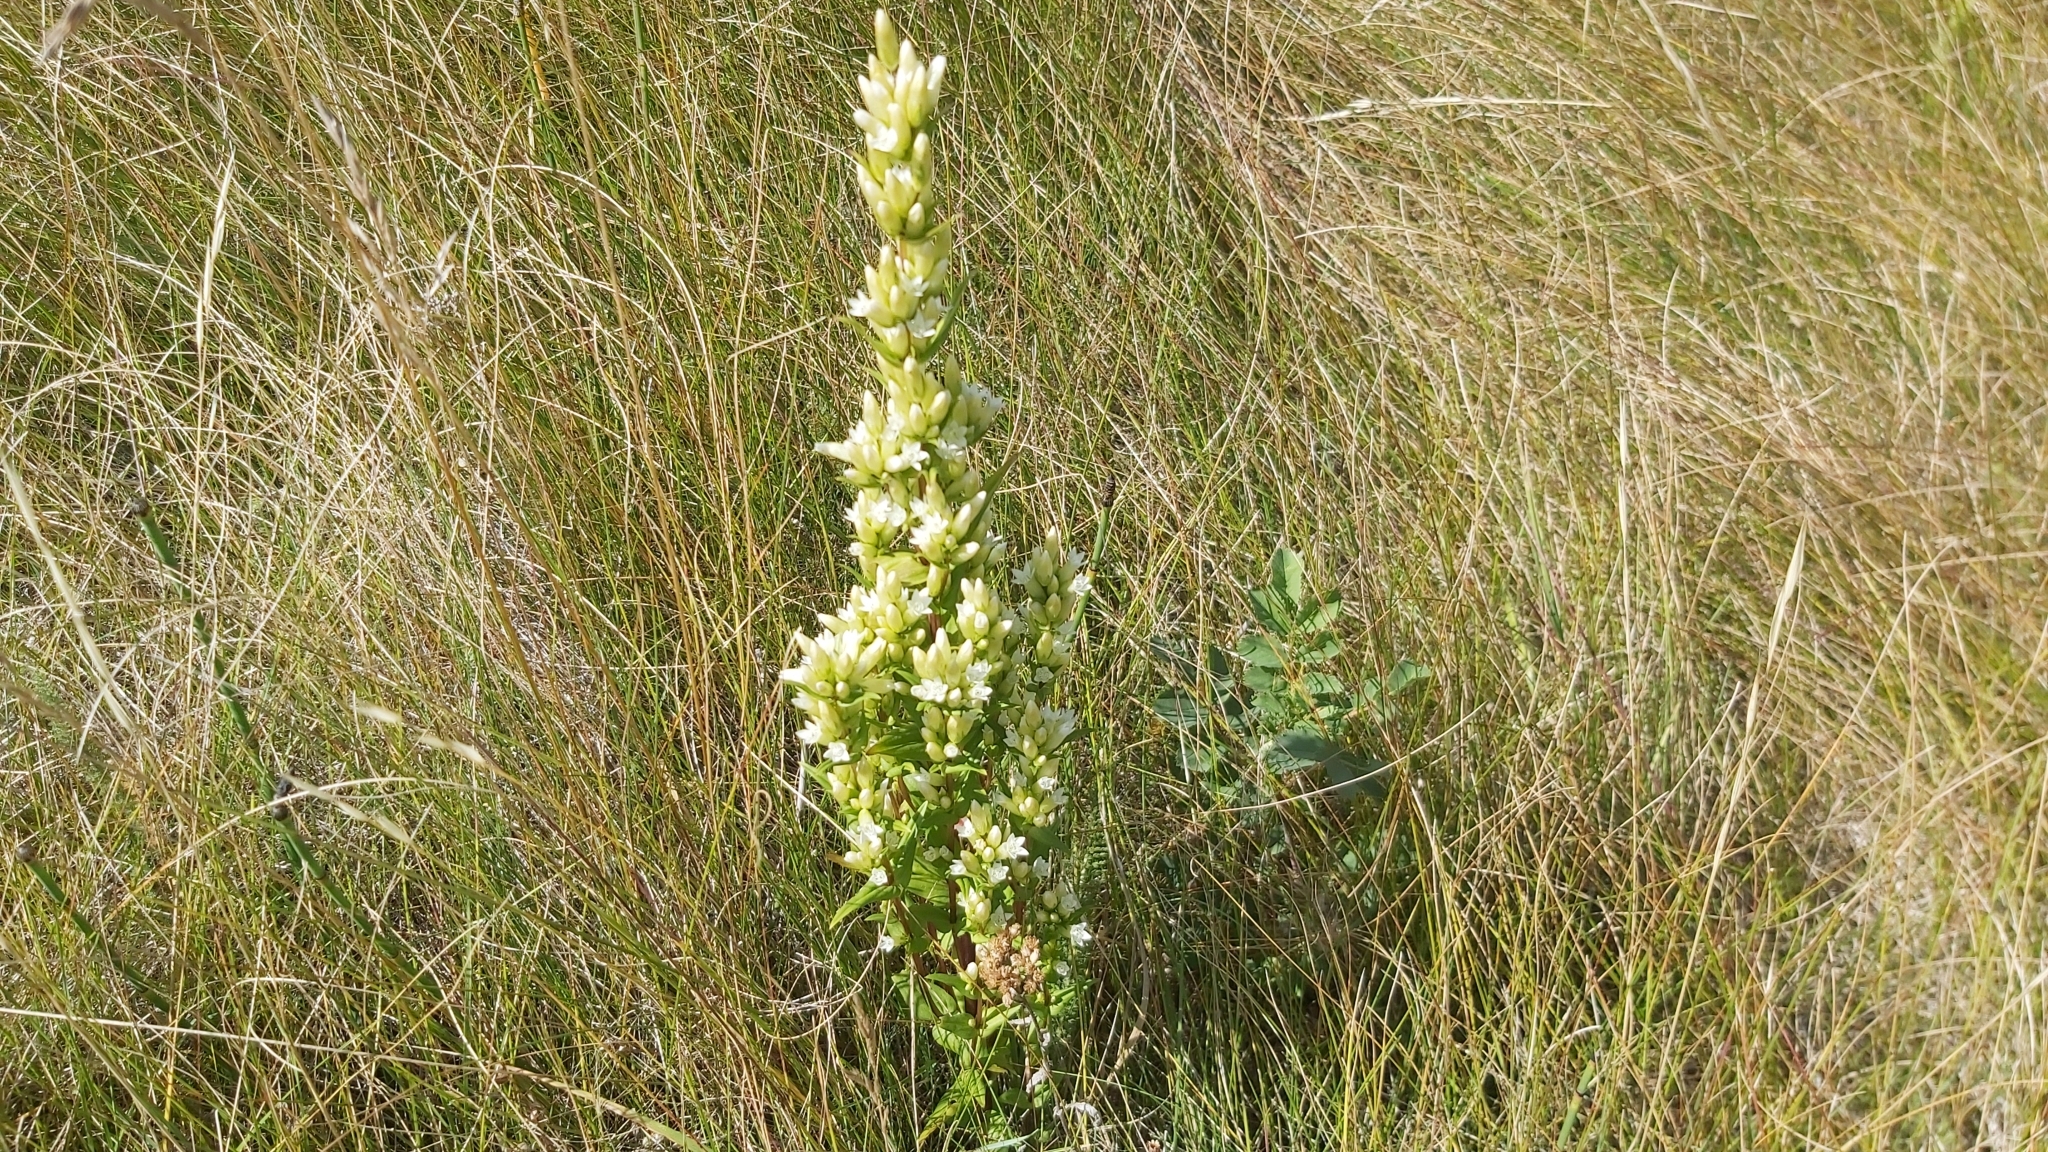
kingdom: Plantae
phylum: Tracheophyta
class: Magnoliopsida
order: Gentianales
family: Gentianaceae
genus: Gentianella
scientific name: Gentianella amarella
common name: Autumn gentian
